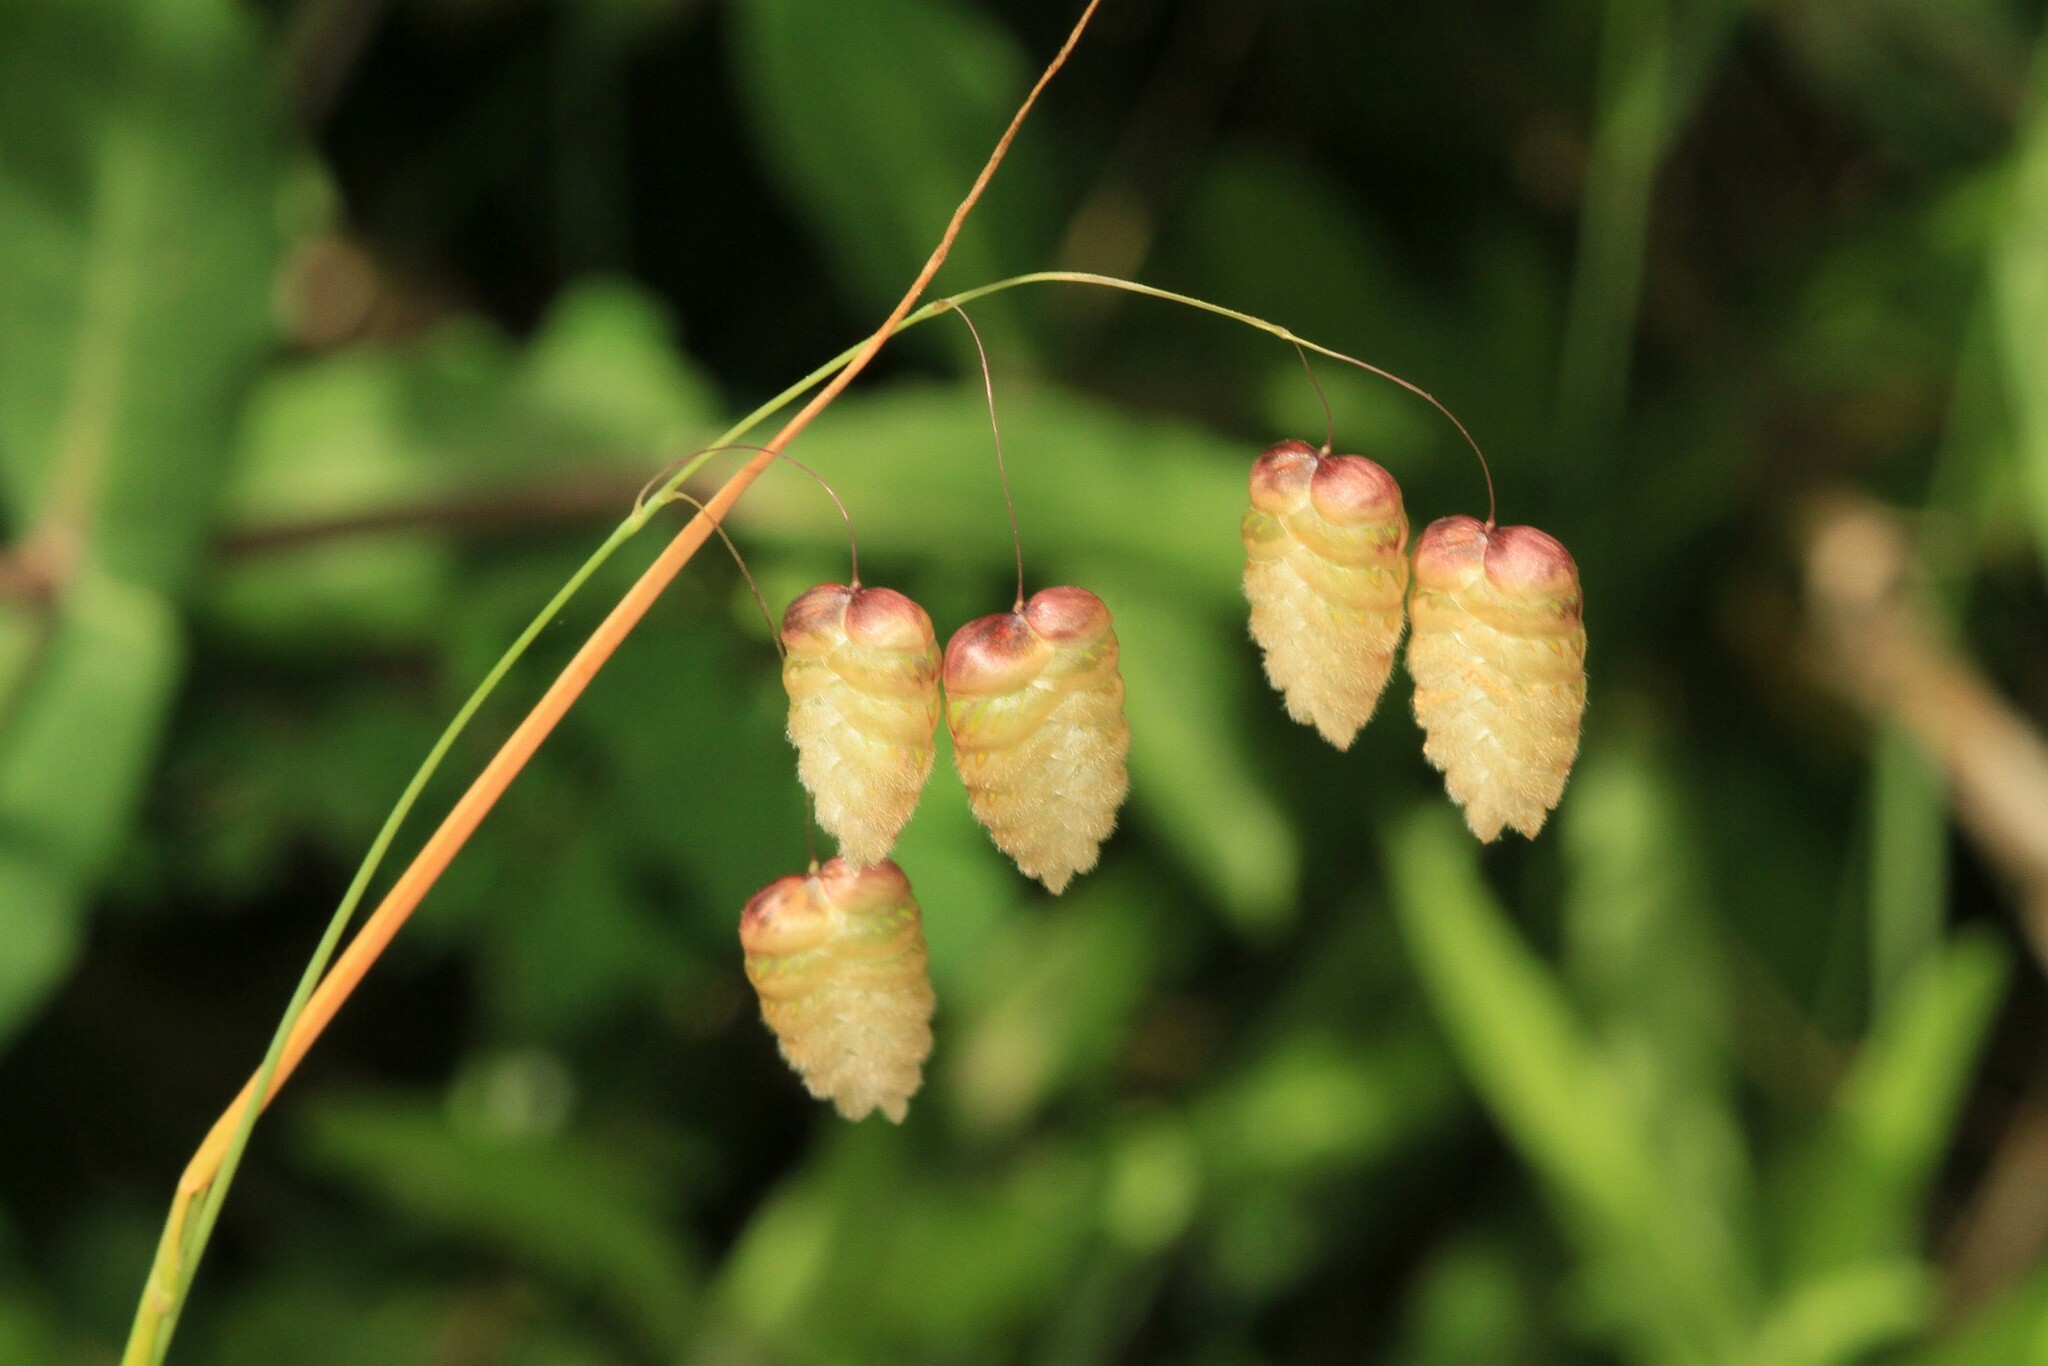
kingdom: Plantae
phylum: Tracheophyta
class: Liliopsida
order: Poales
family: Poaceae
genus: Briza
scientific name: Briza maxima
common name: Big quakinggrass
